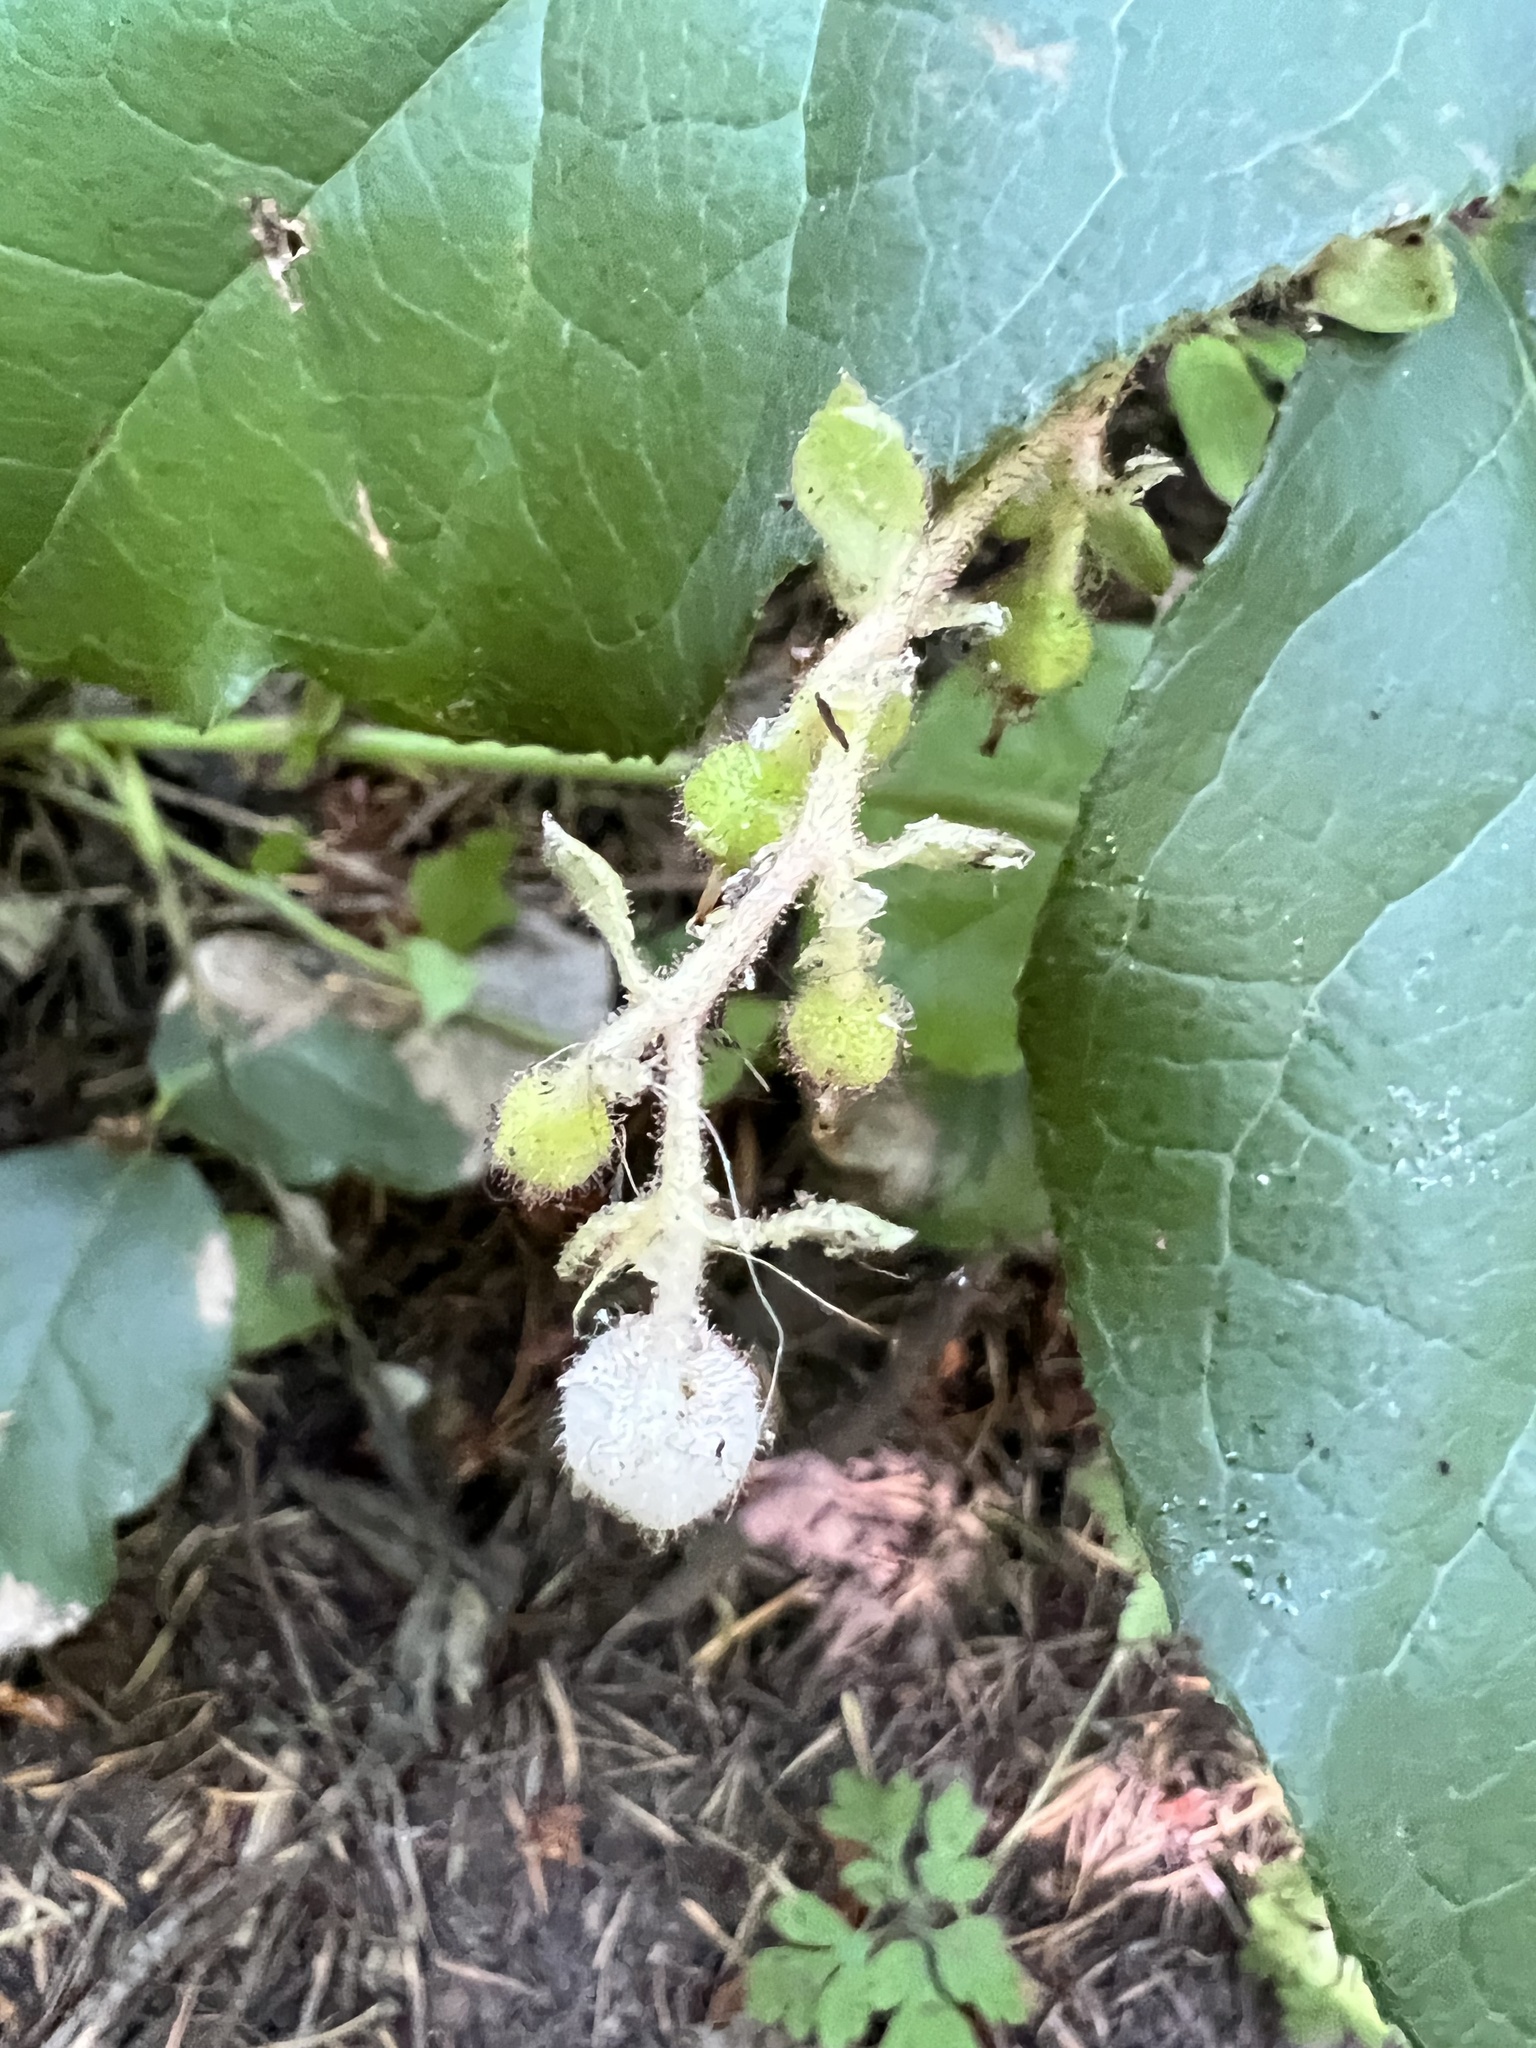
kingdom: Plantae
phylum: Tracheophyta
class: Magnoliopsida
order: Ericales
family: Ericaceae
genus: Gaultheria
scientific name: Gaultheria shallon
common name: Shallon
